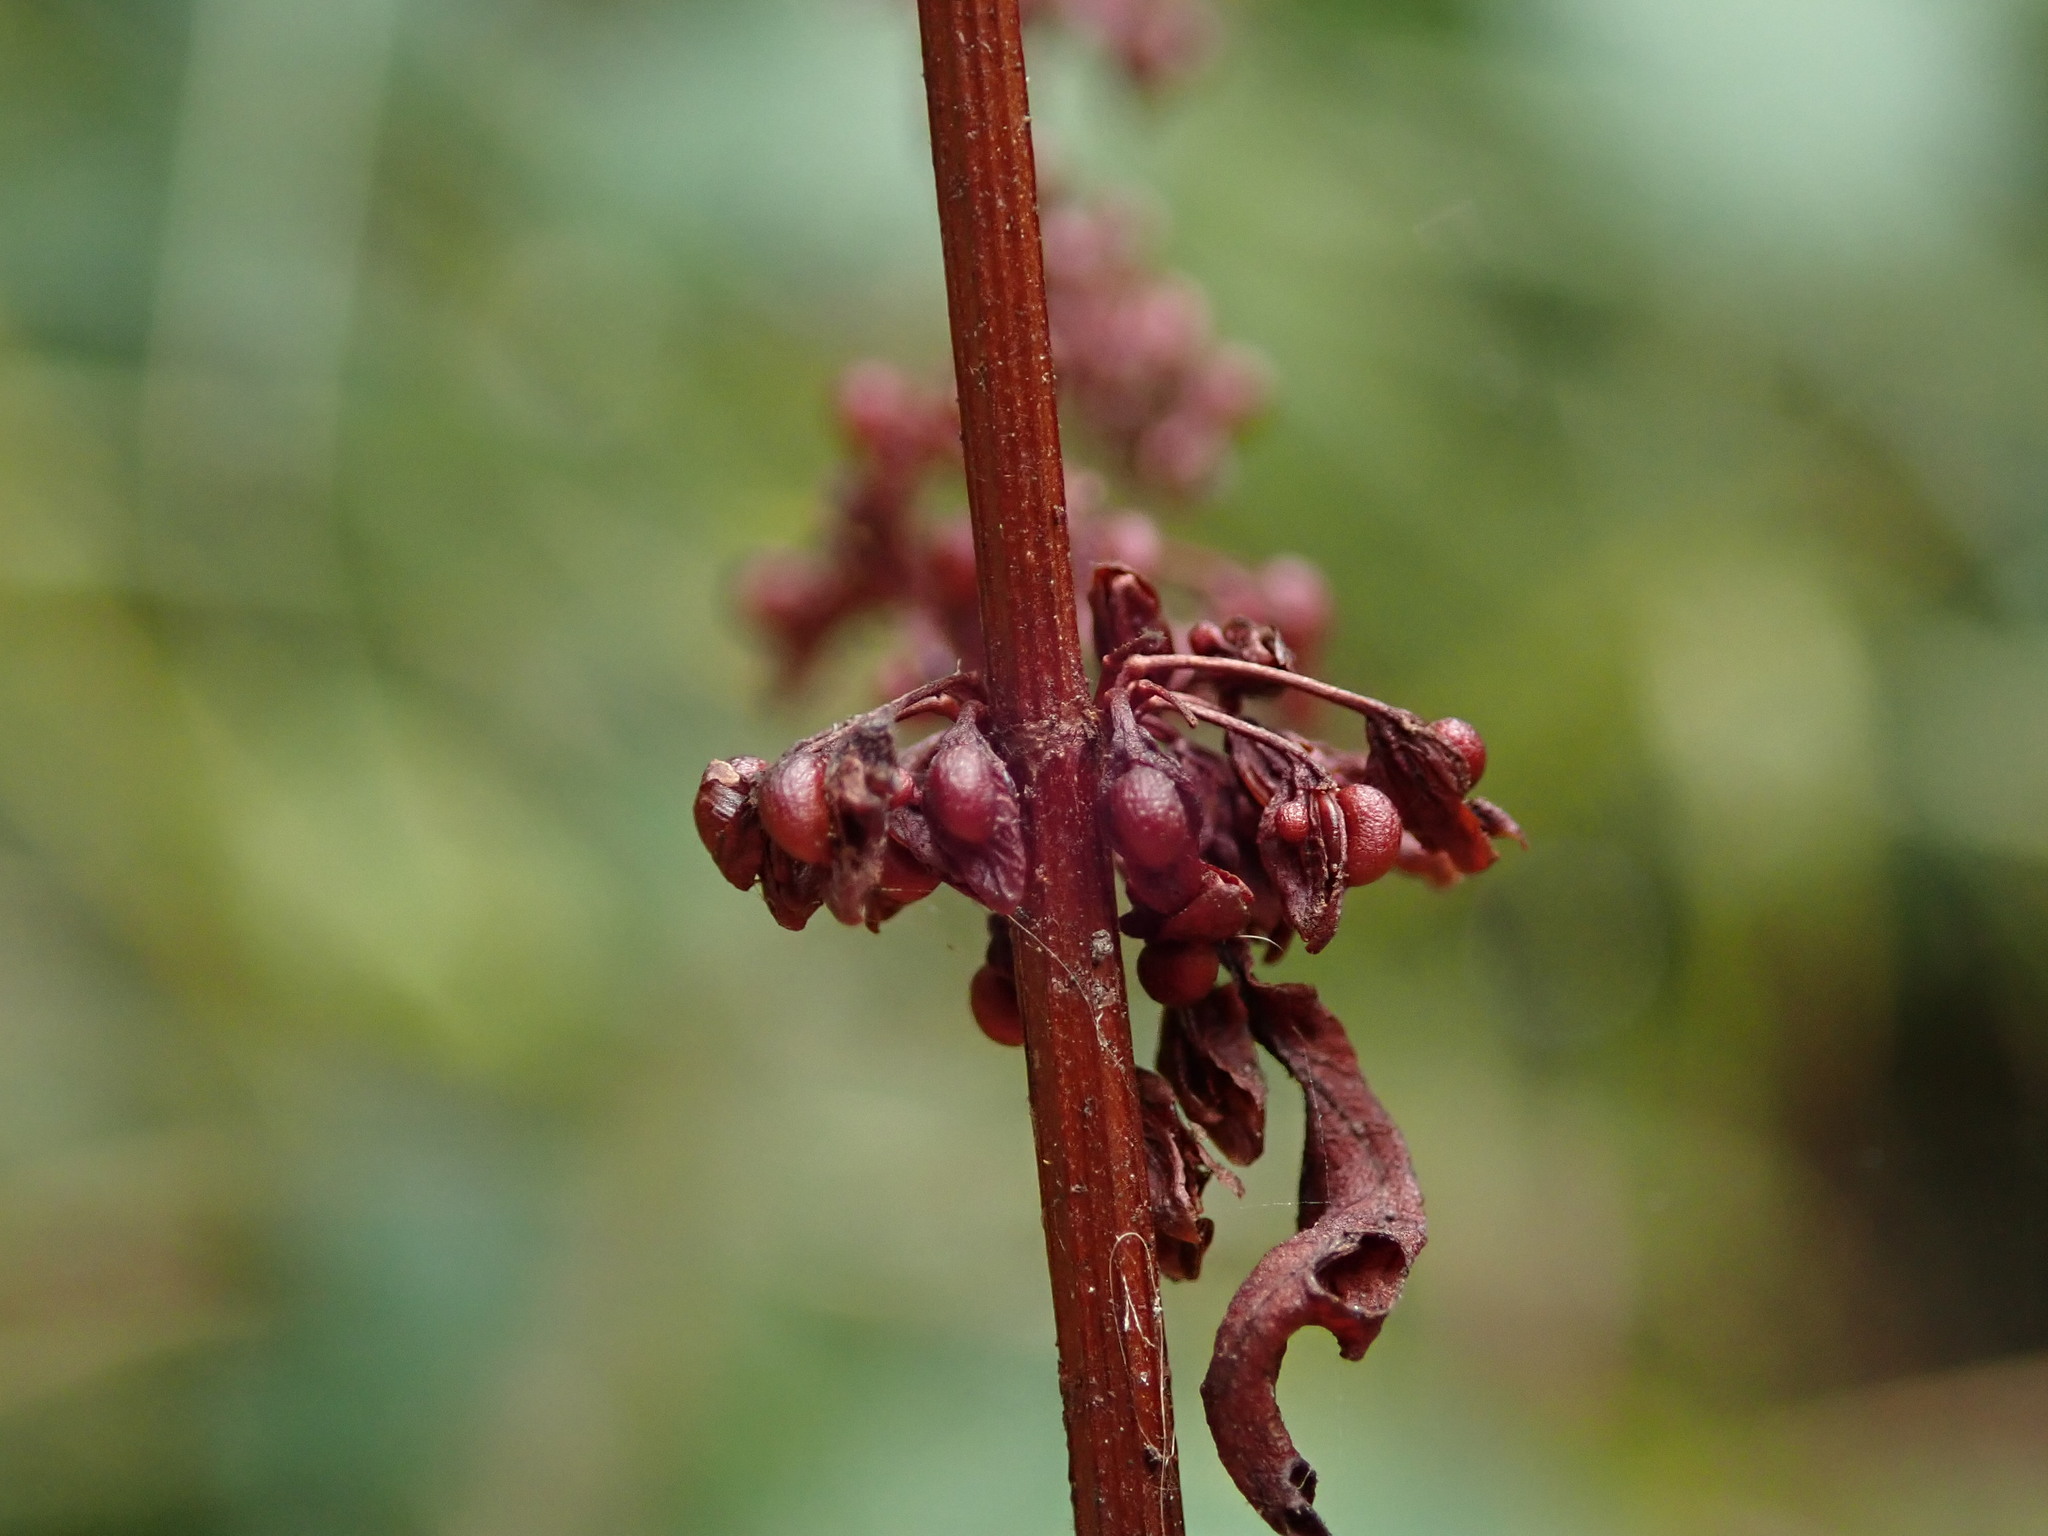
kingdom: Plantae
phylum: Tracheophyta
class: Magnoliopsida
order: Caryophyllales
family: Polygonaceae
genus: Rumex
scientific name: Rumex sanguineus
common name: Wood dock
